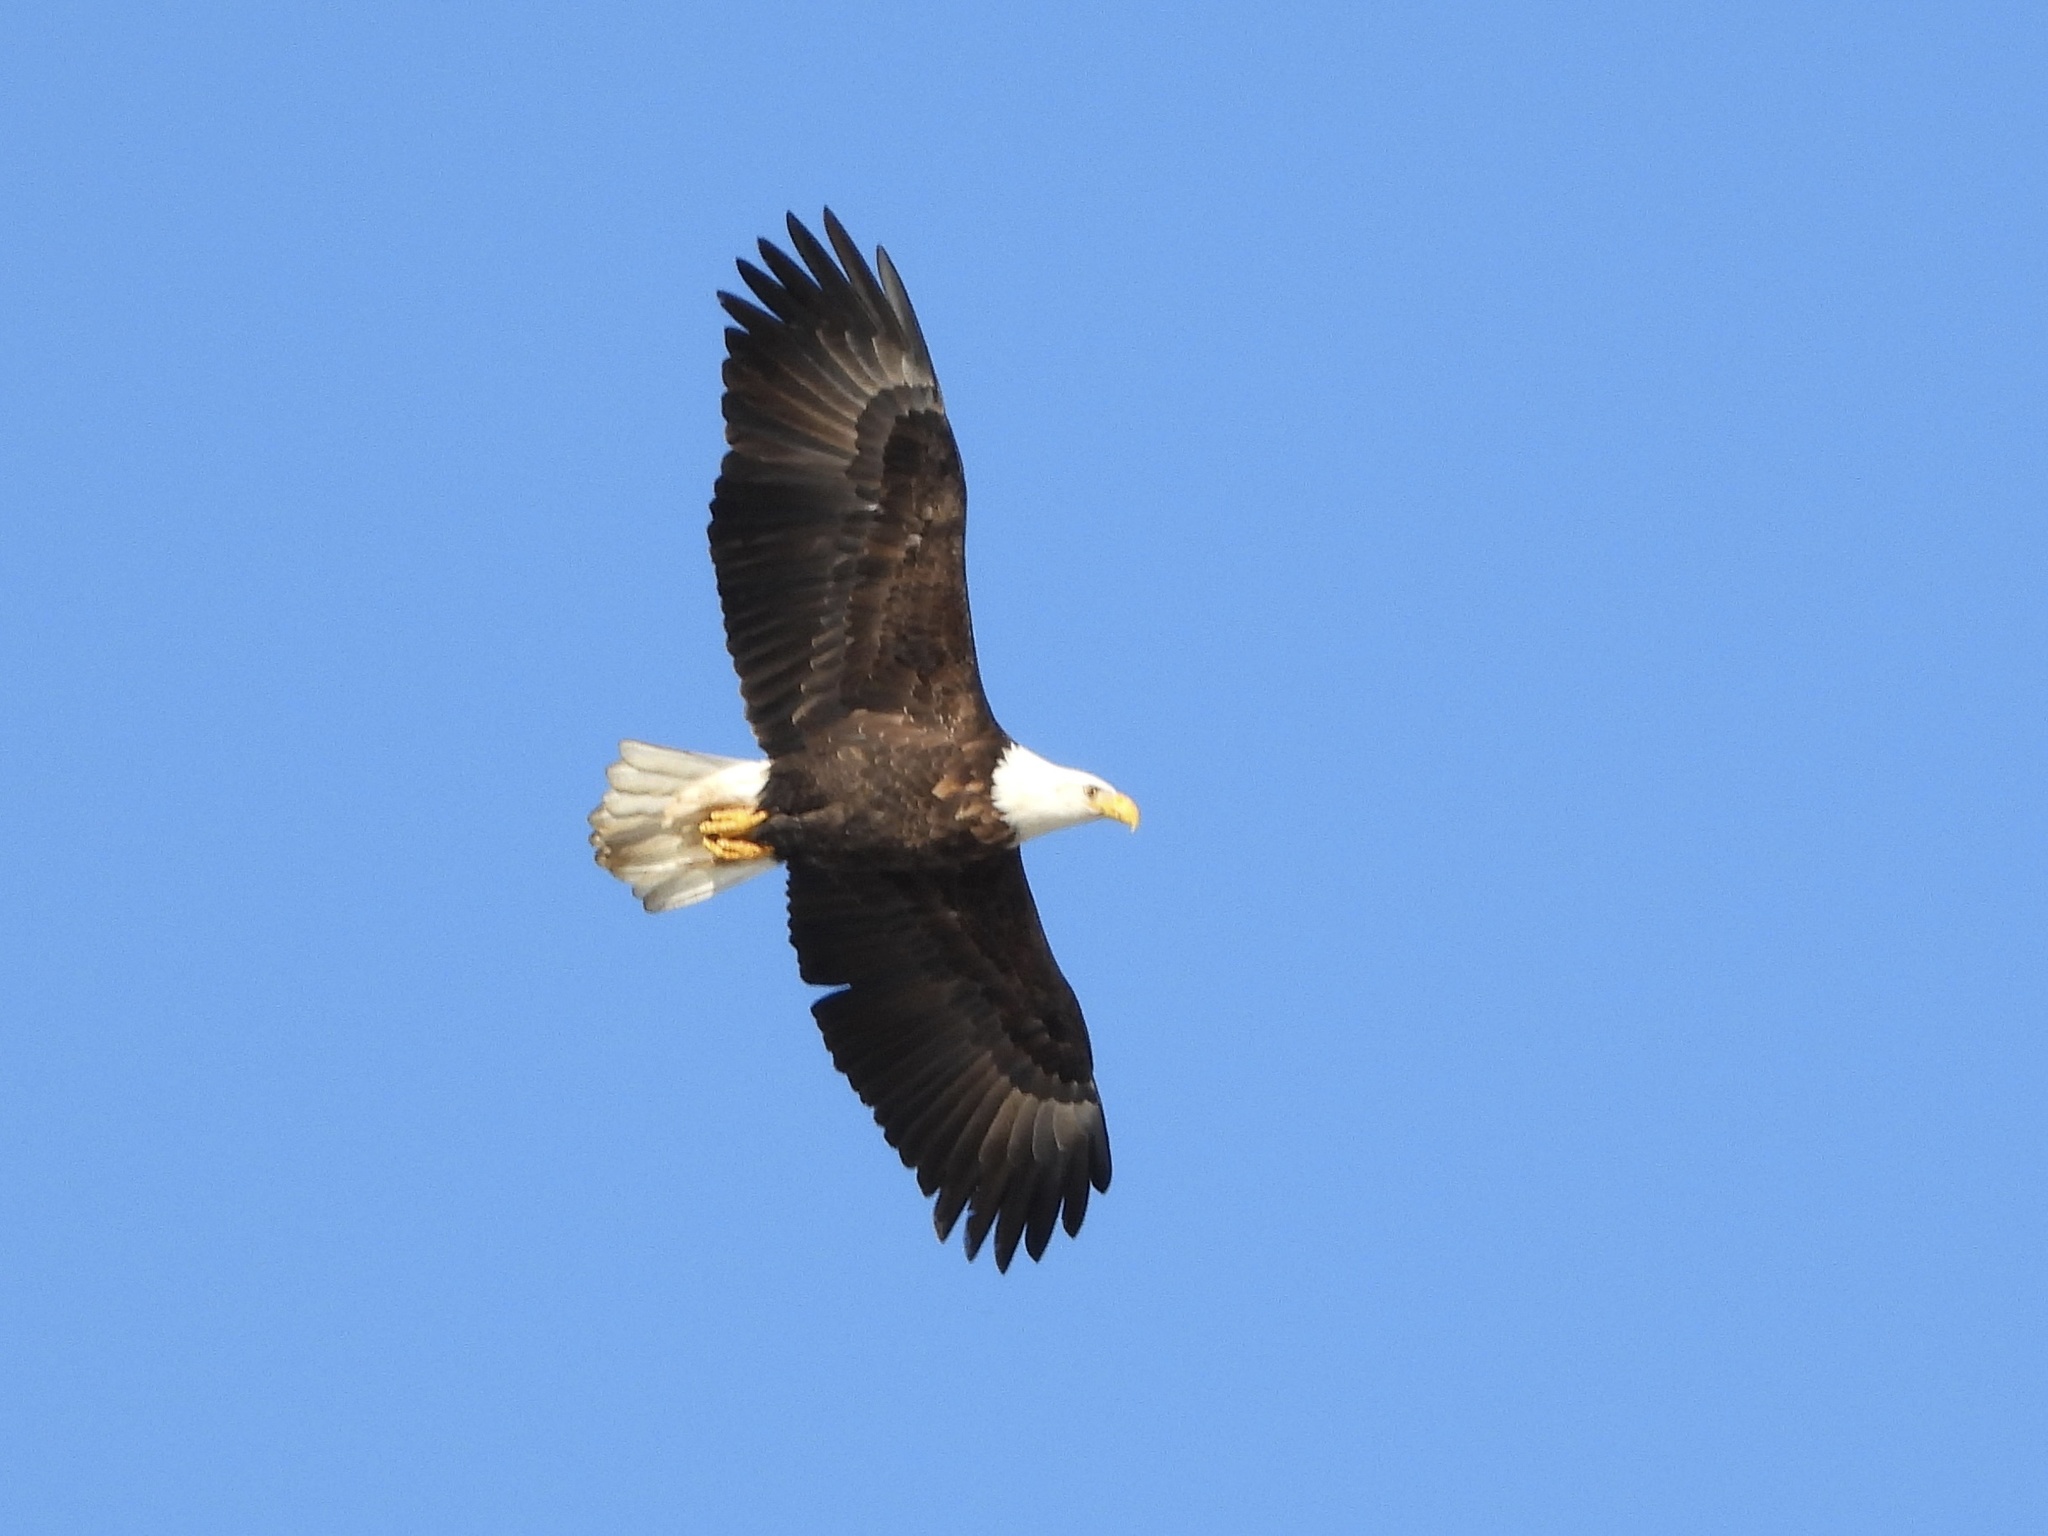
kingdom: Animalia
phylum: Chordata
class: Aves
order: Accipitriformes
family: Accipitridae
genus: Haliaeetus
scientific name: Haliaeetus leucocephalus
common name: Bald eagle
